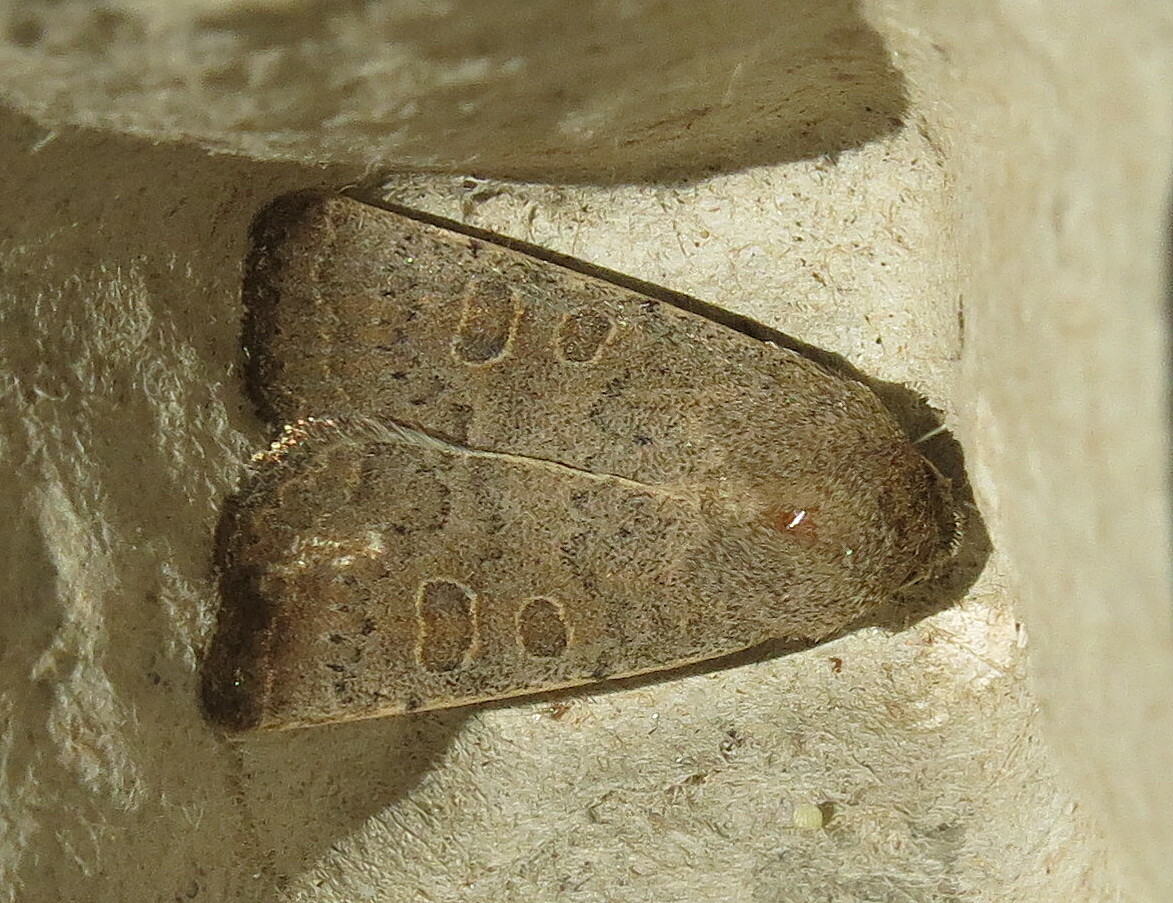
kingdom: Animalia
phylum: Arthropoda
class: Insecta
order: Lepidoptera
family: Noctuidae
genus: Hoplodrina
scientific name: Hoplodrina ambigua
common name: Vine's rustic
